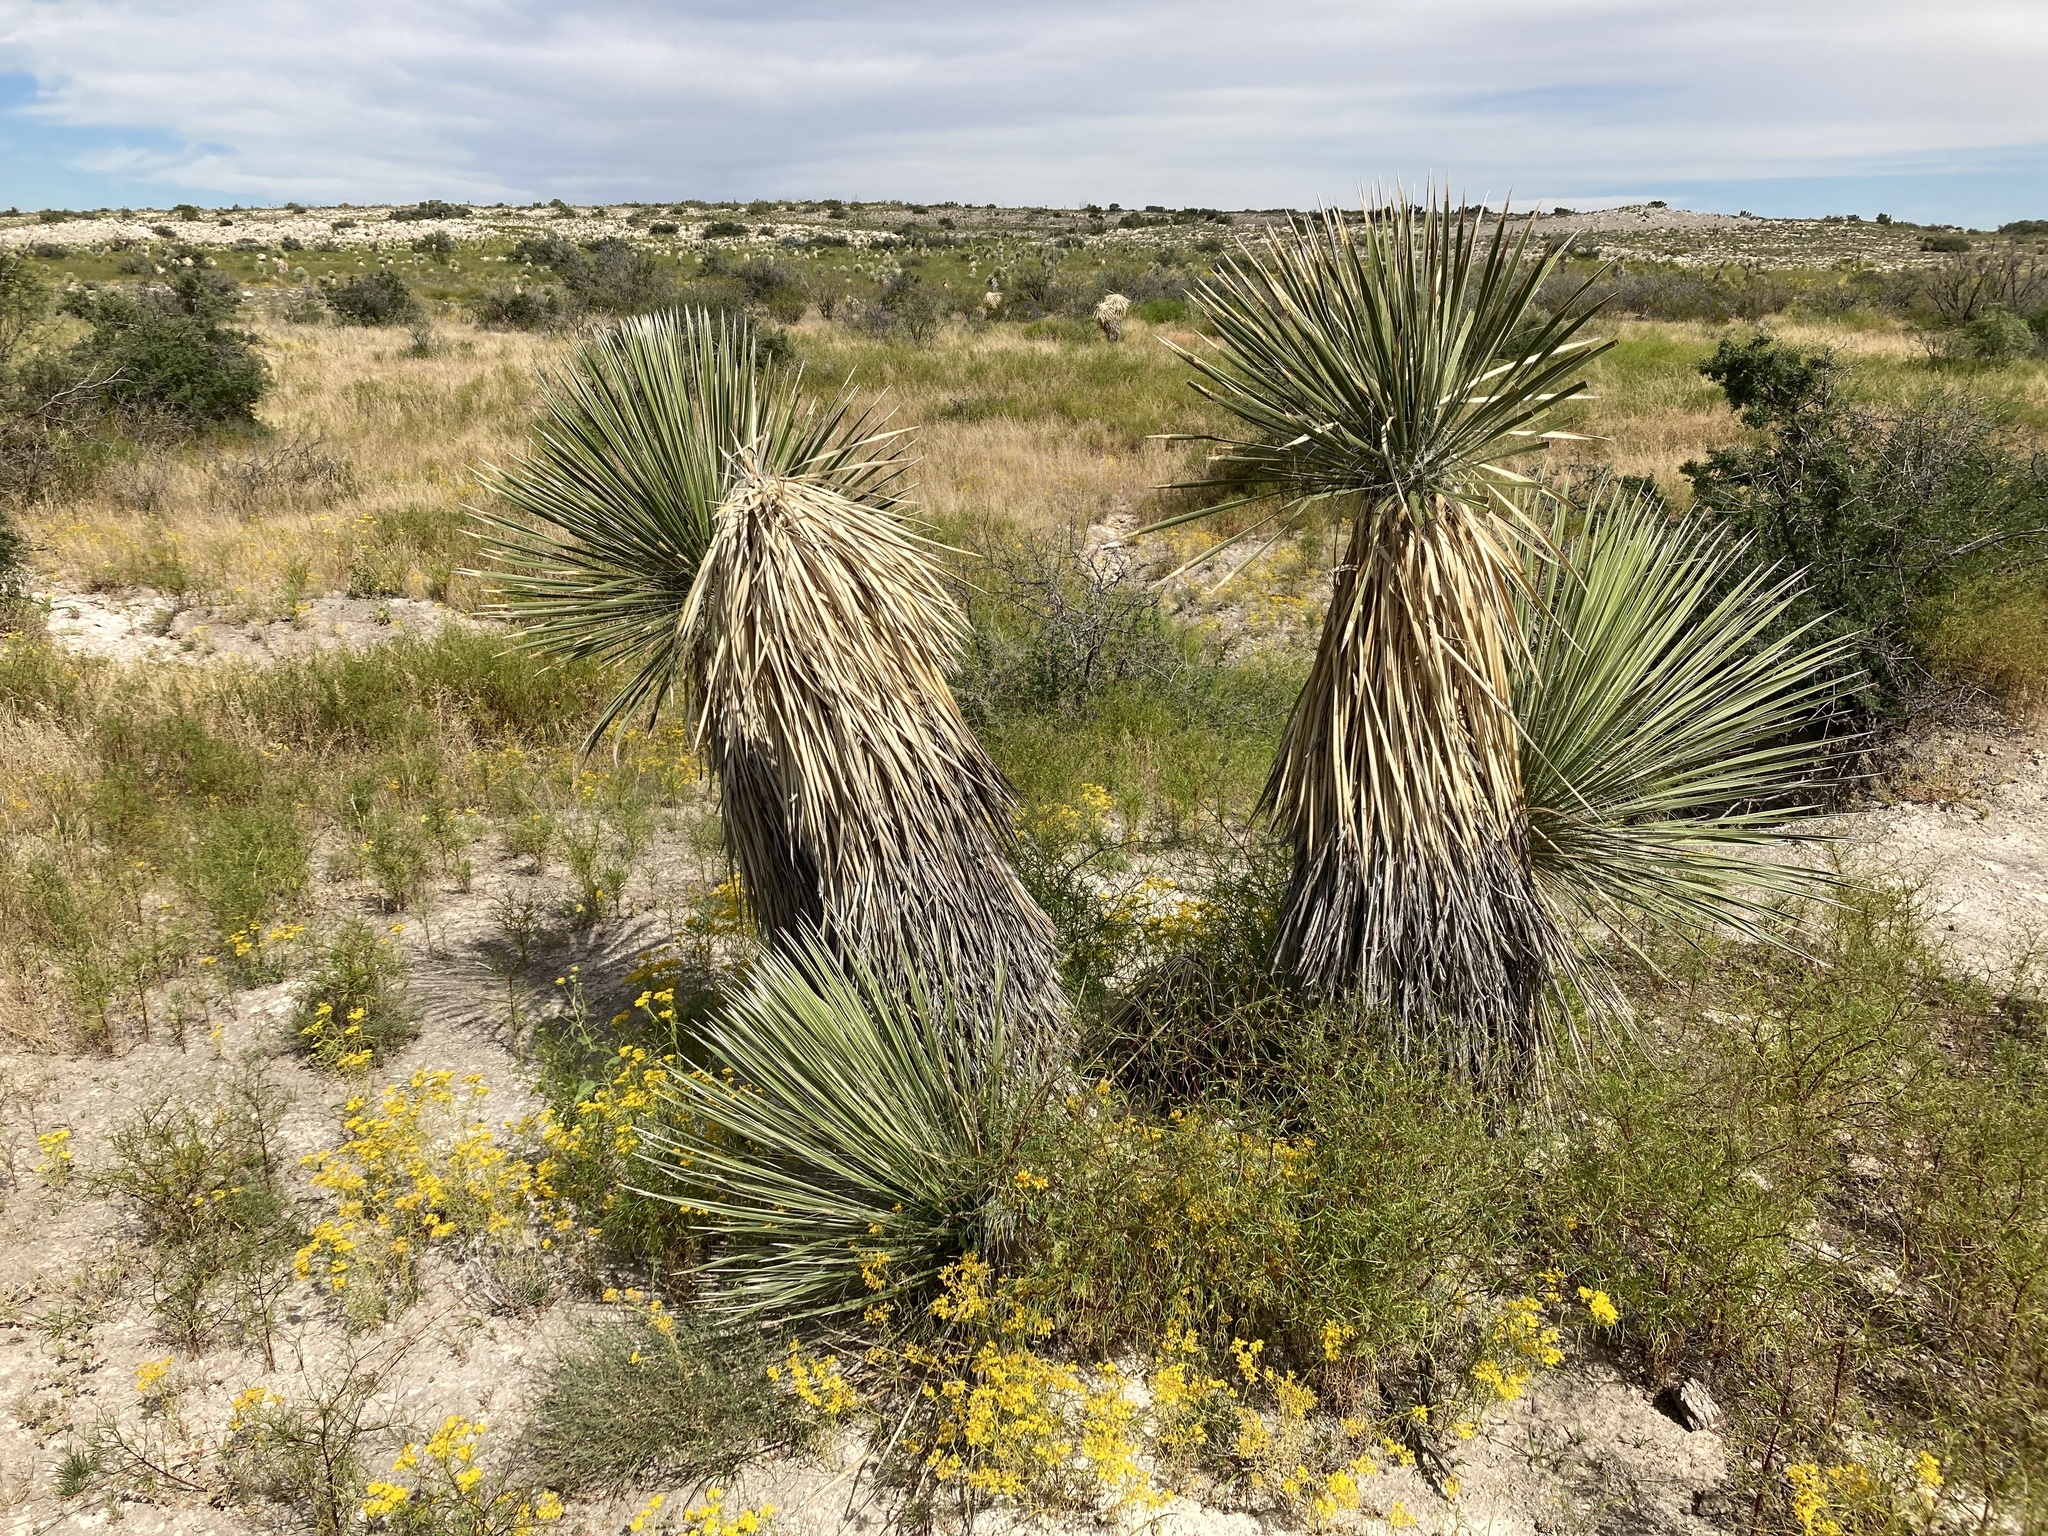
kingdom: Plantae
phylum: Tracheophyta
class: Liliopsida
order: Asparagales
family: Asparagaceae
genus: Yucca
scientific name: Yucca elata
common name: Palmella
